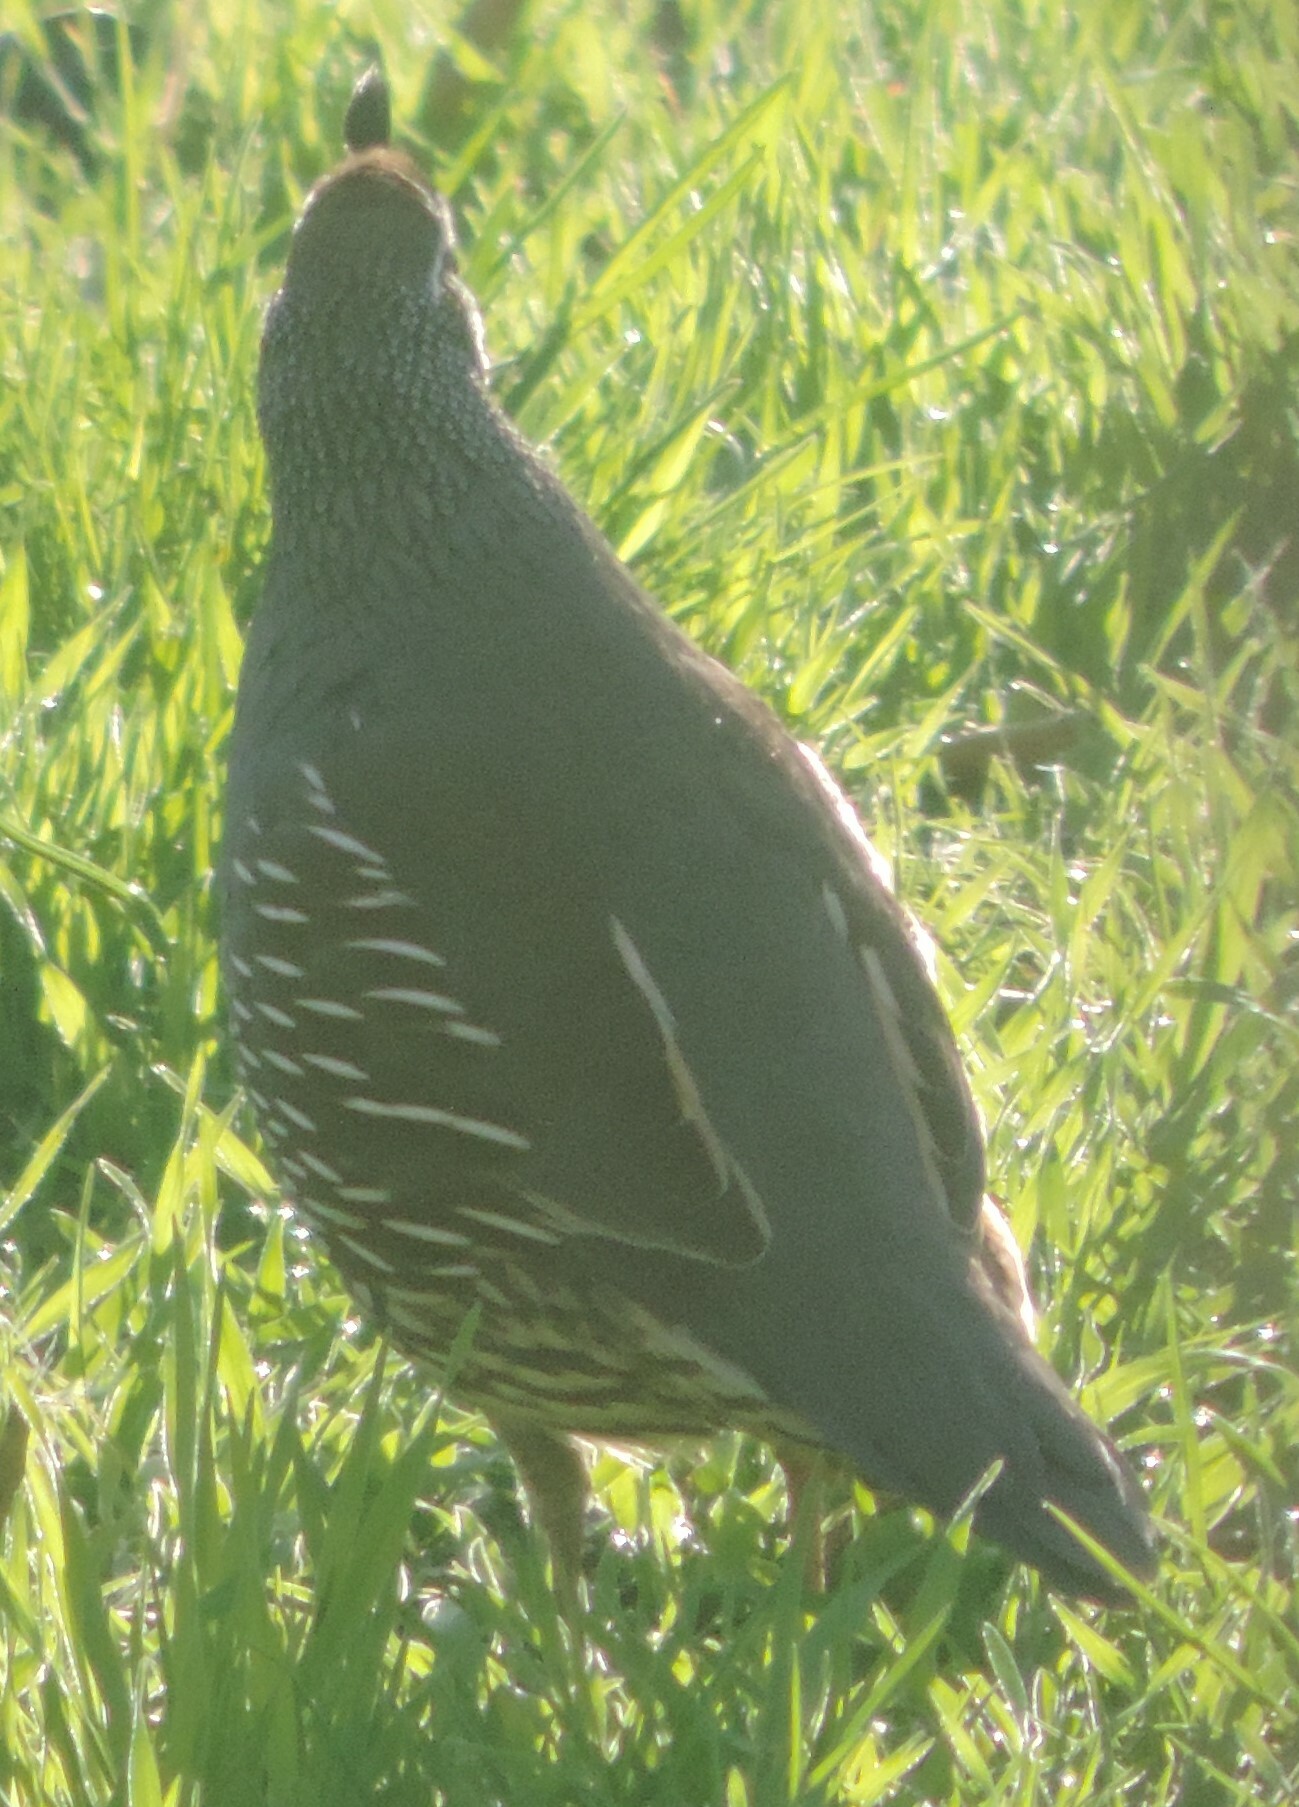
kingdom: Animalia
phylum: Chordata
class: Aves
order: Galliformes
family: Odontophoridae
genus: Callipepla
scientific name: Callipepla californica
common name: California quail
